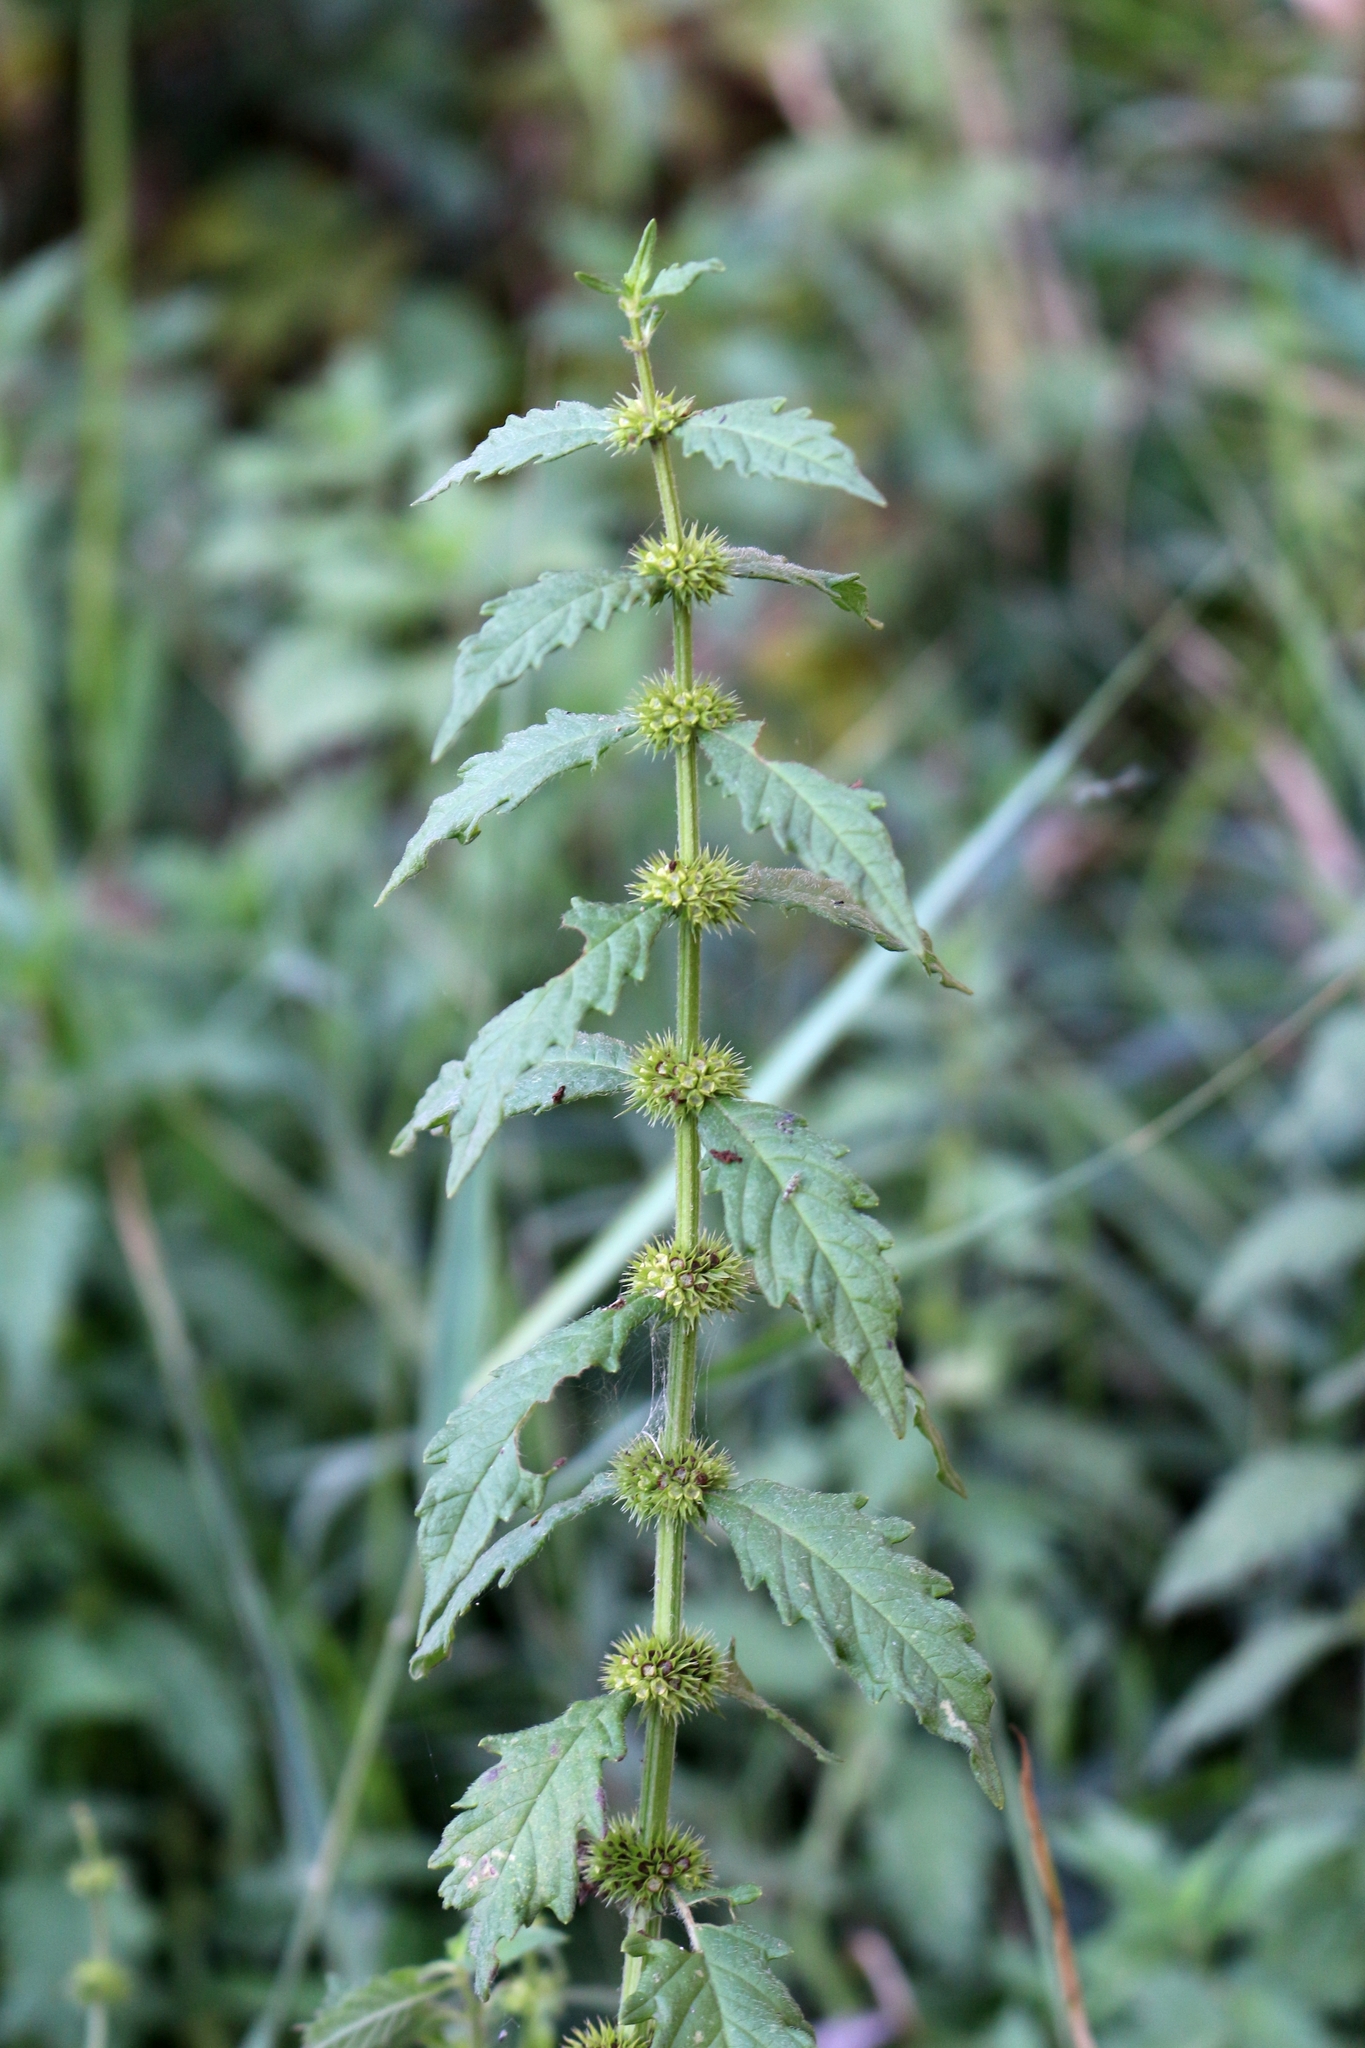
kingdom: Plantae
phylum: Tracheophyta
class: Magnoliopsida
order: Lamiales
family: Lamiaceae
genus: Lycopus
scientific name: Lycopus europaeus
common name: European bugleweed
